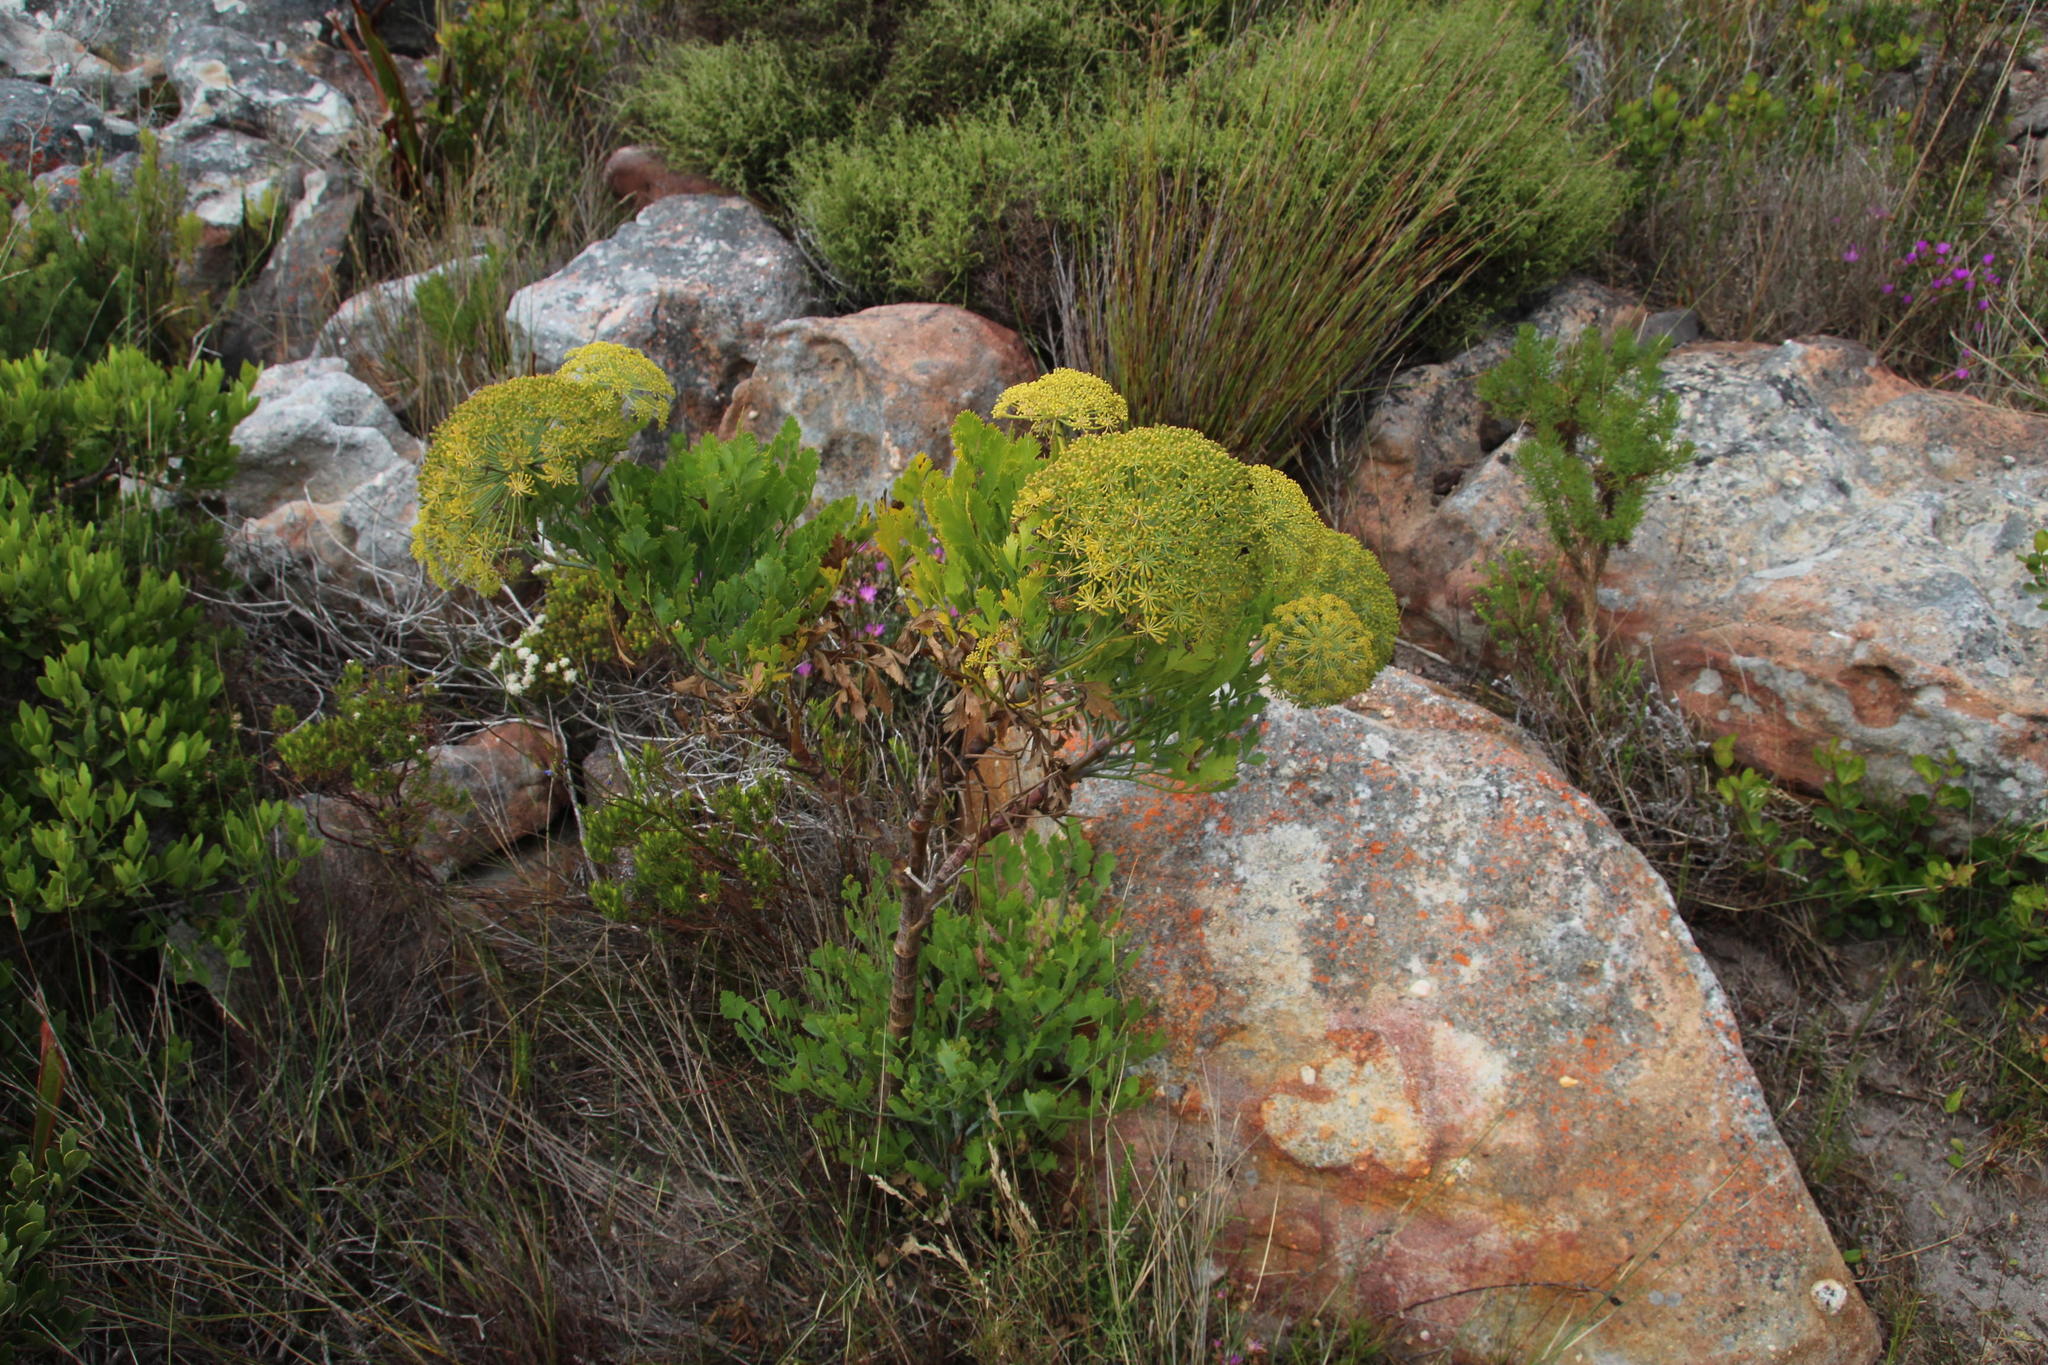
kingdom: Plantae
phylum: Tracheophyta
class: Magnoliopsida
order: Apiales
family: Apiaceae
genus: Notobubon
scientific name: Notobubon galbanum
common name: Blisterbush
